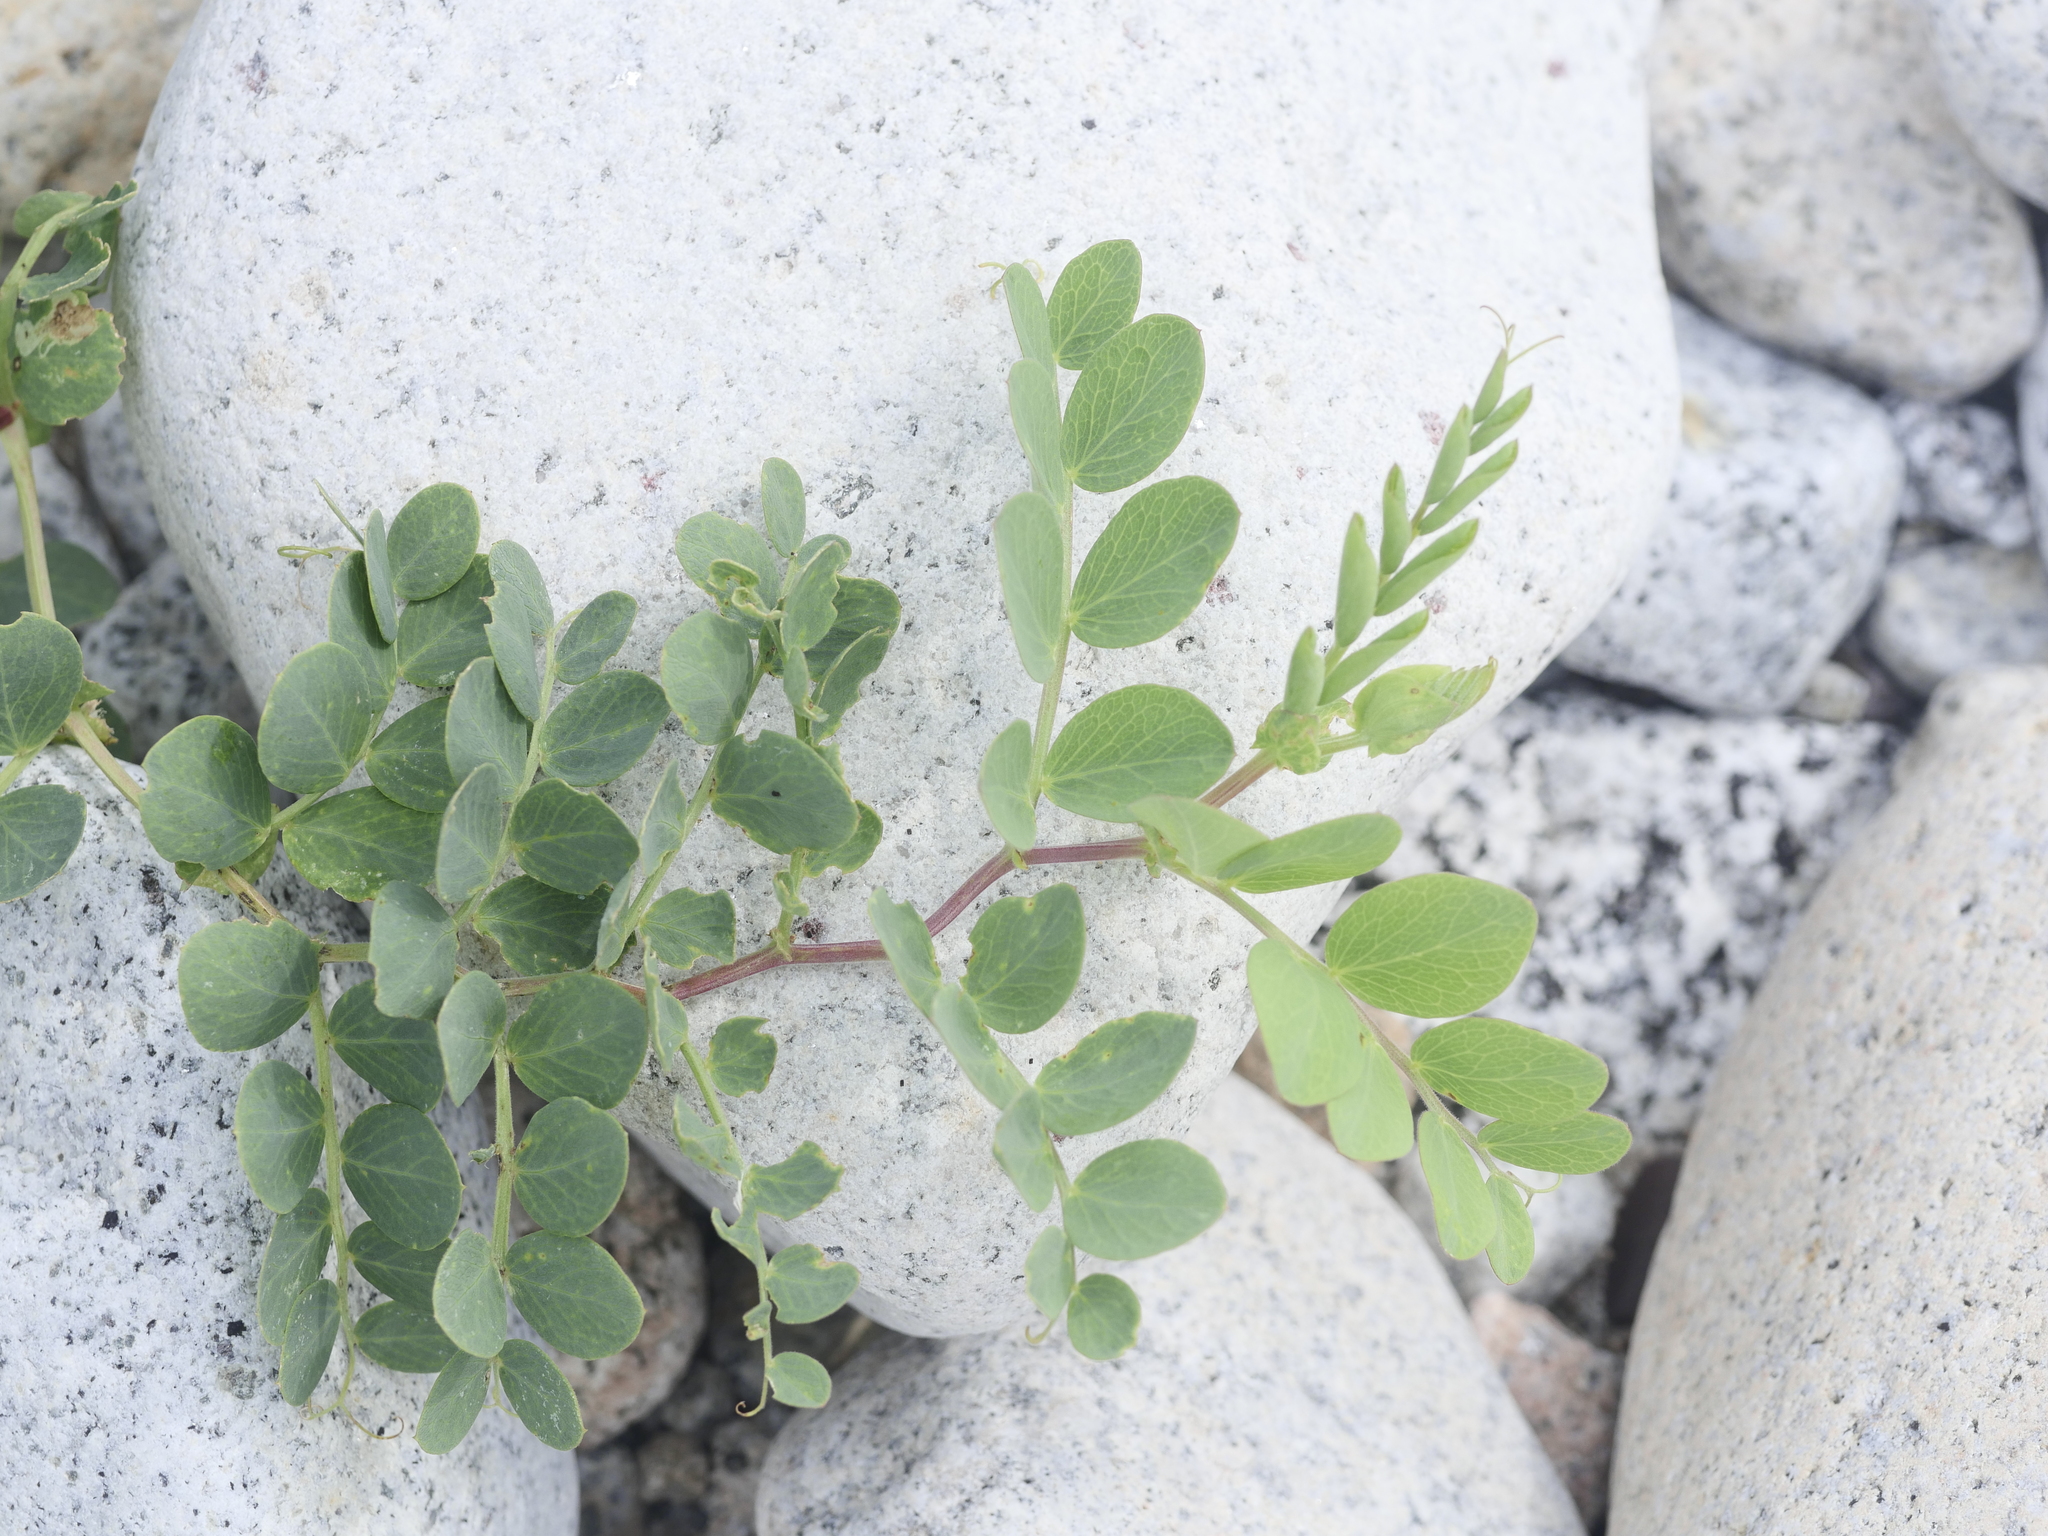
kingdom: Plantae
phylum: Tracheophyta
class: Magnoliopsida
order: Fabales
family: Fabaceae
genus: Lathyrus
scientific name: Lathyrus japonicus
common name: Sea pea
